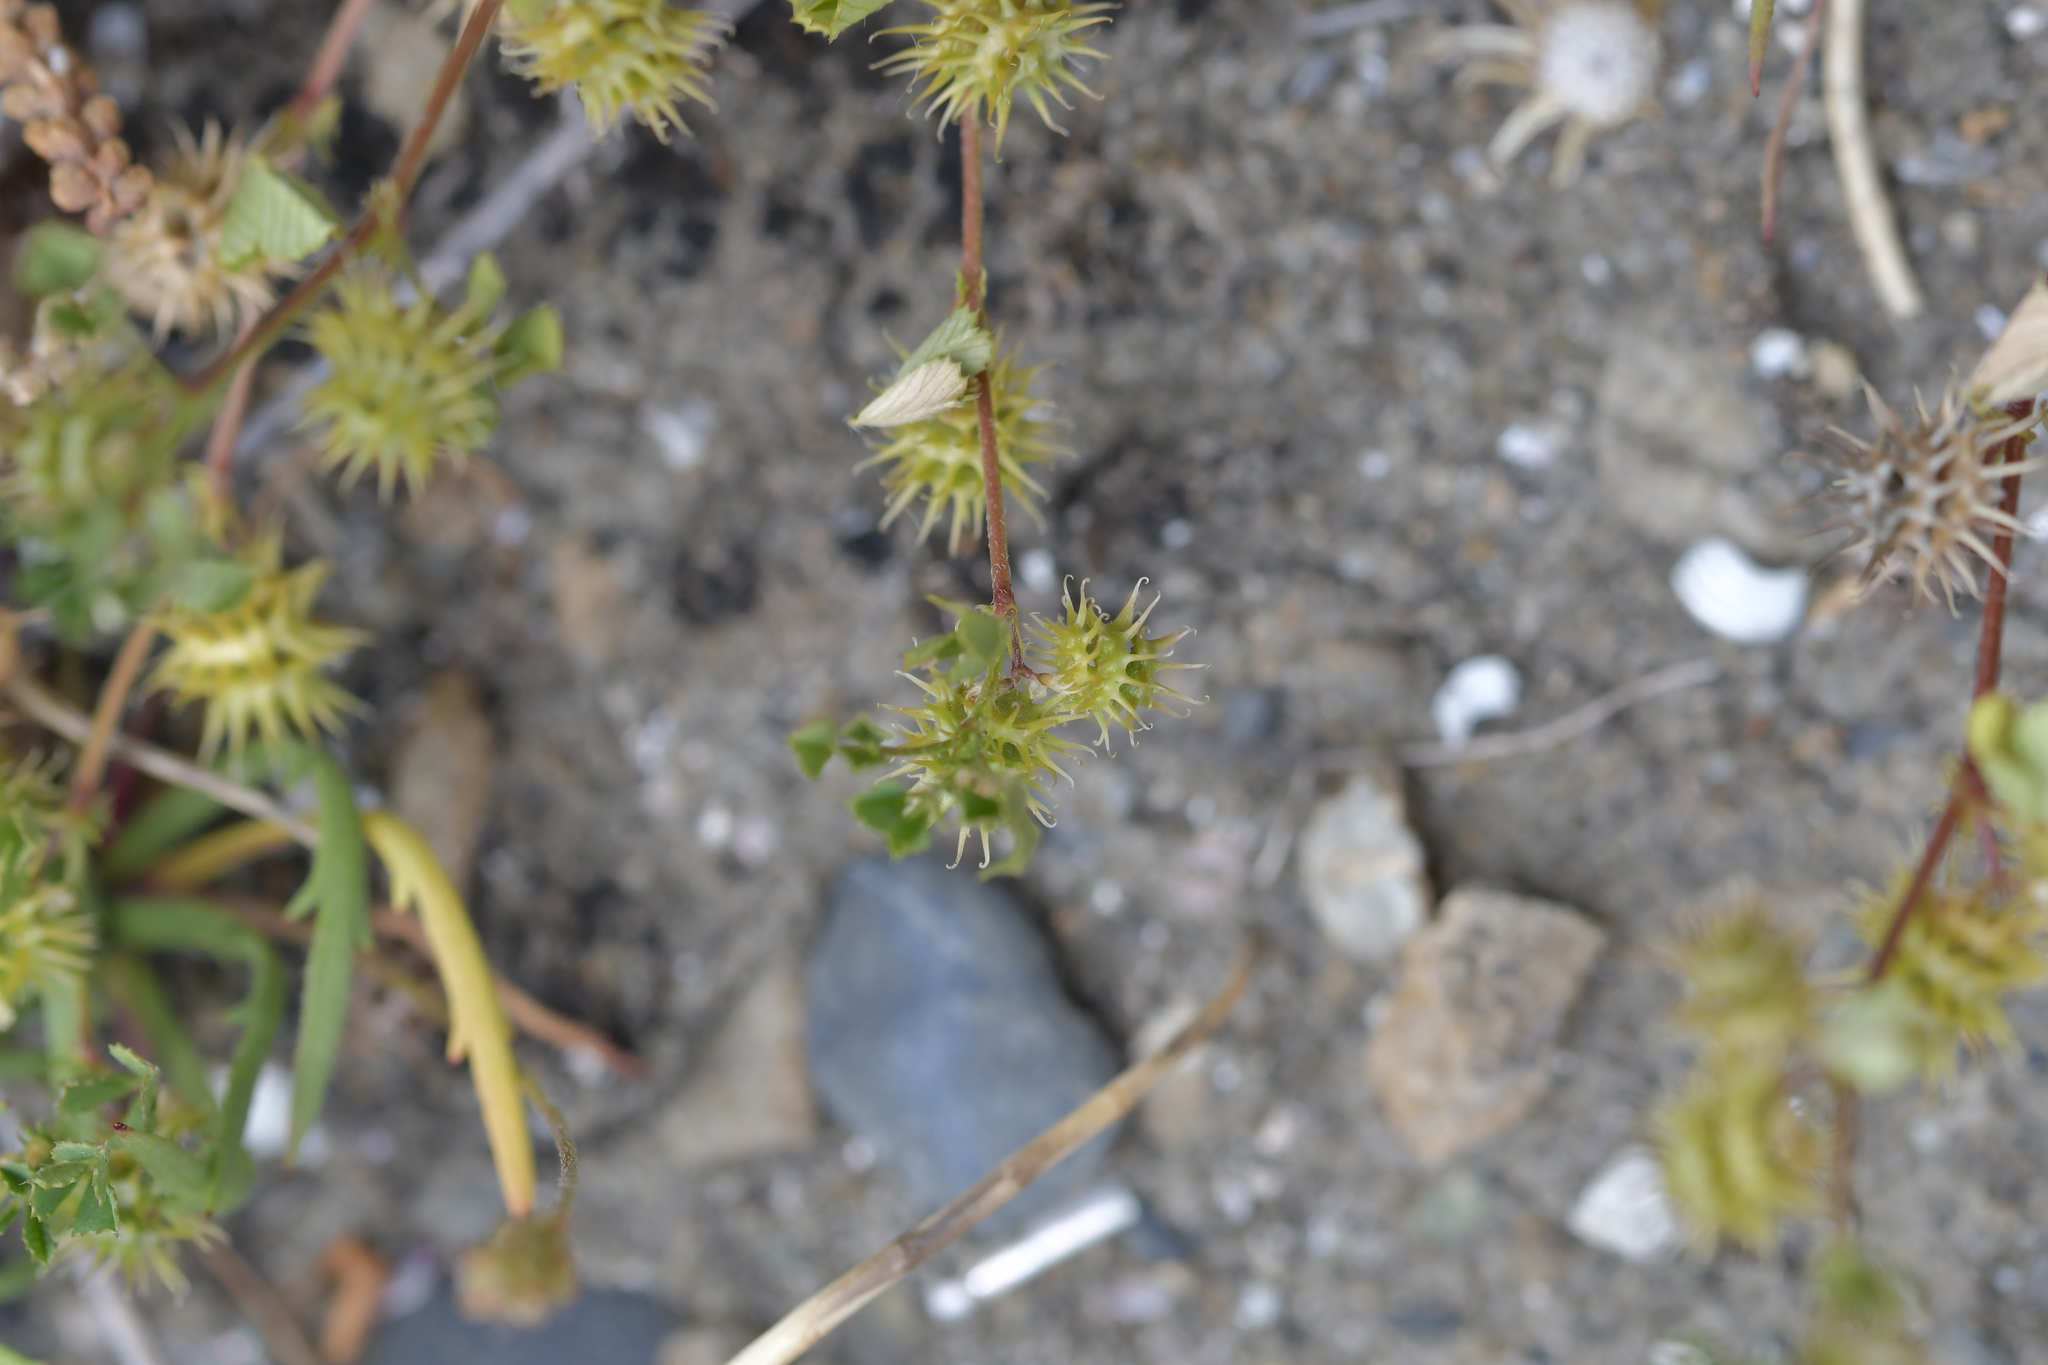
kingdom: Plantae
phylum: Tracheophyta
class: Magnoliopsida
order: Fabales
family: Fabaceae
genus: Medicago
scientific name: Medicago polymorpha
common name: Burclover
